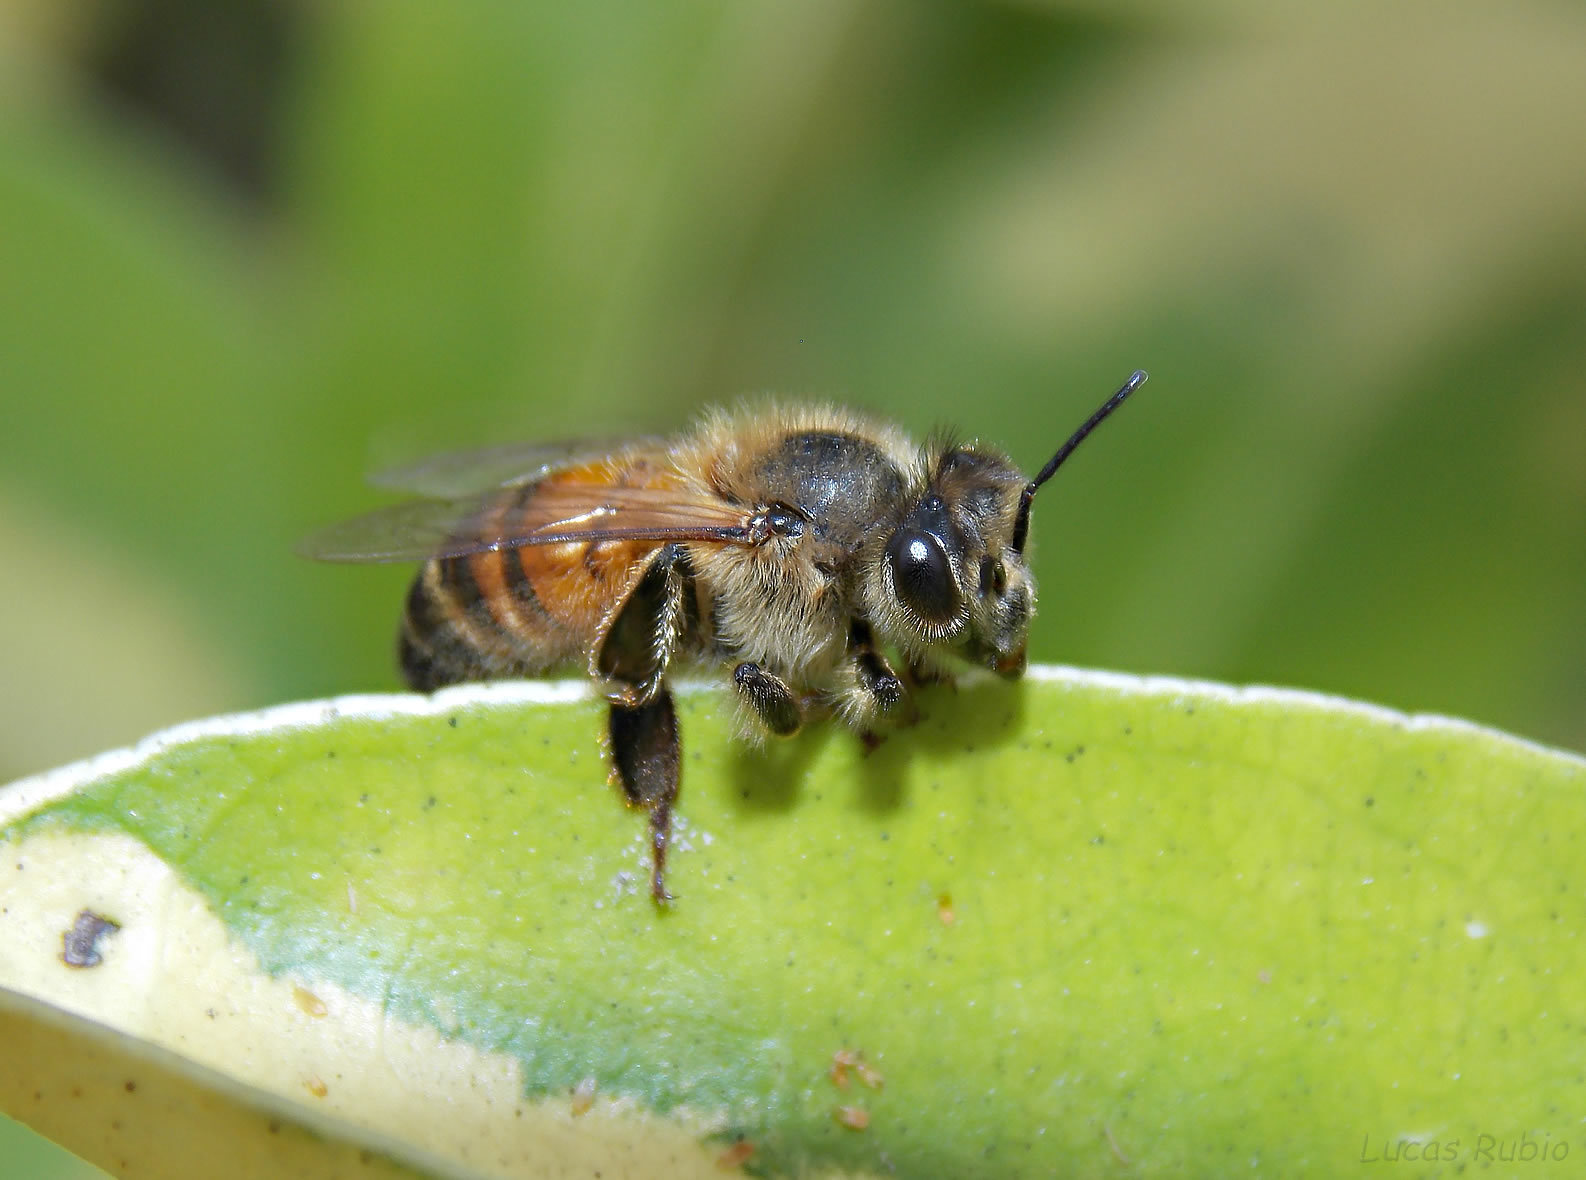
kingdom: Animalia
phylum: Arthropoda
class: Insecta
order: Hymenoptera
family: Apidae
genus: Apis
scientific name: Apis mellifera
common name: Honey bee
